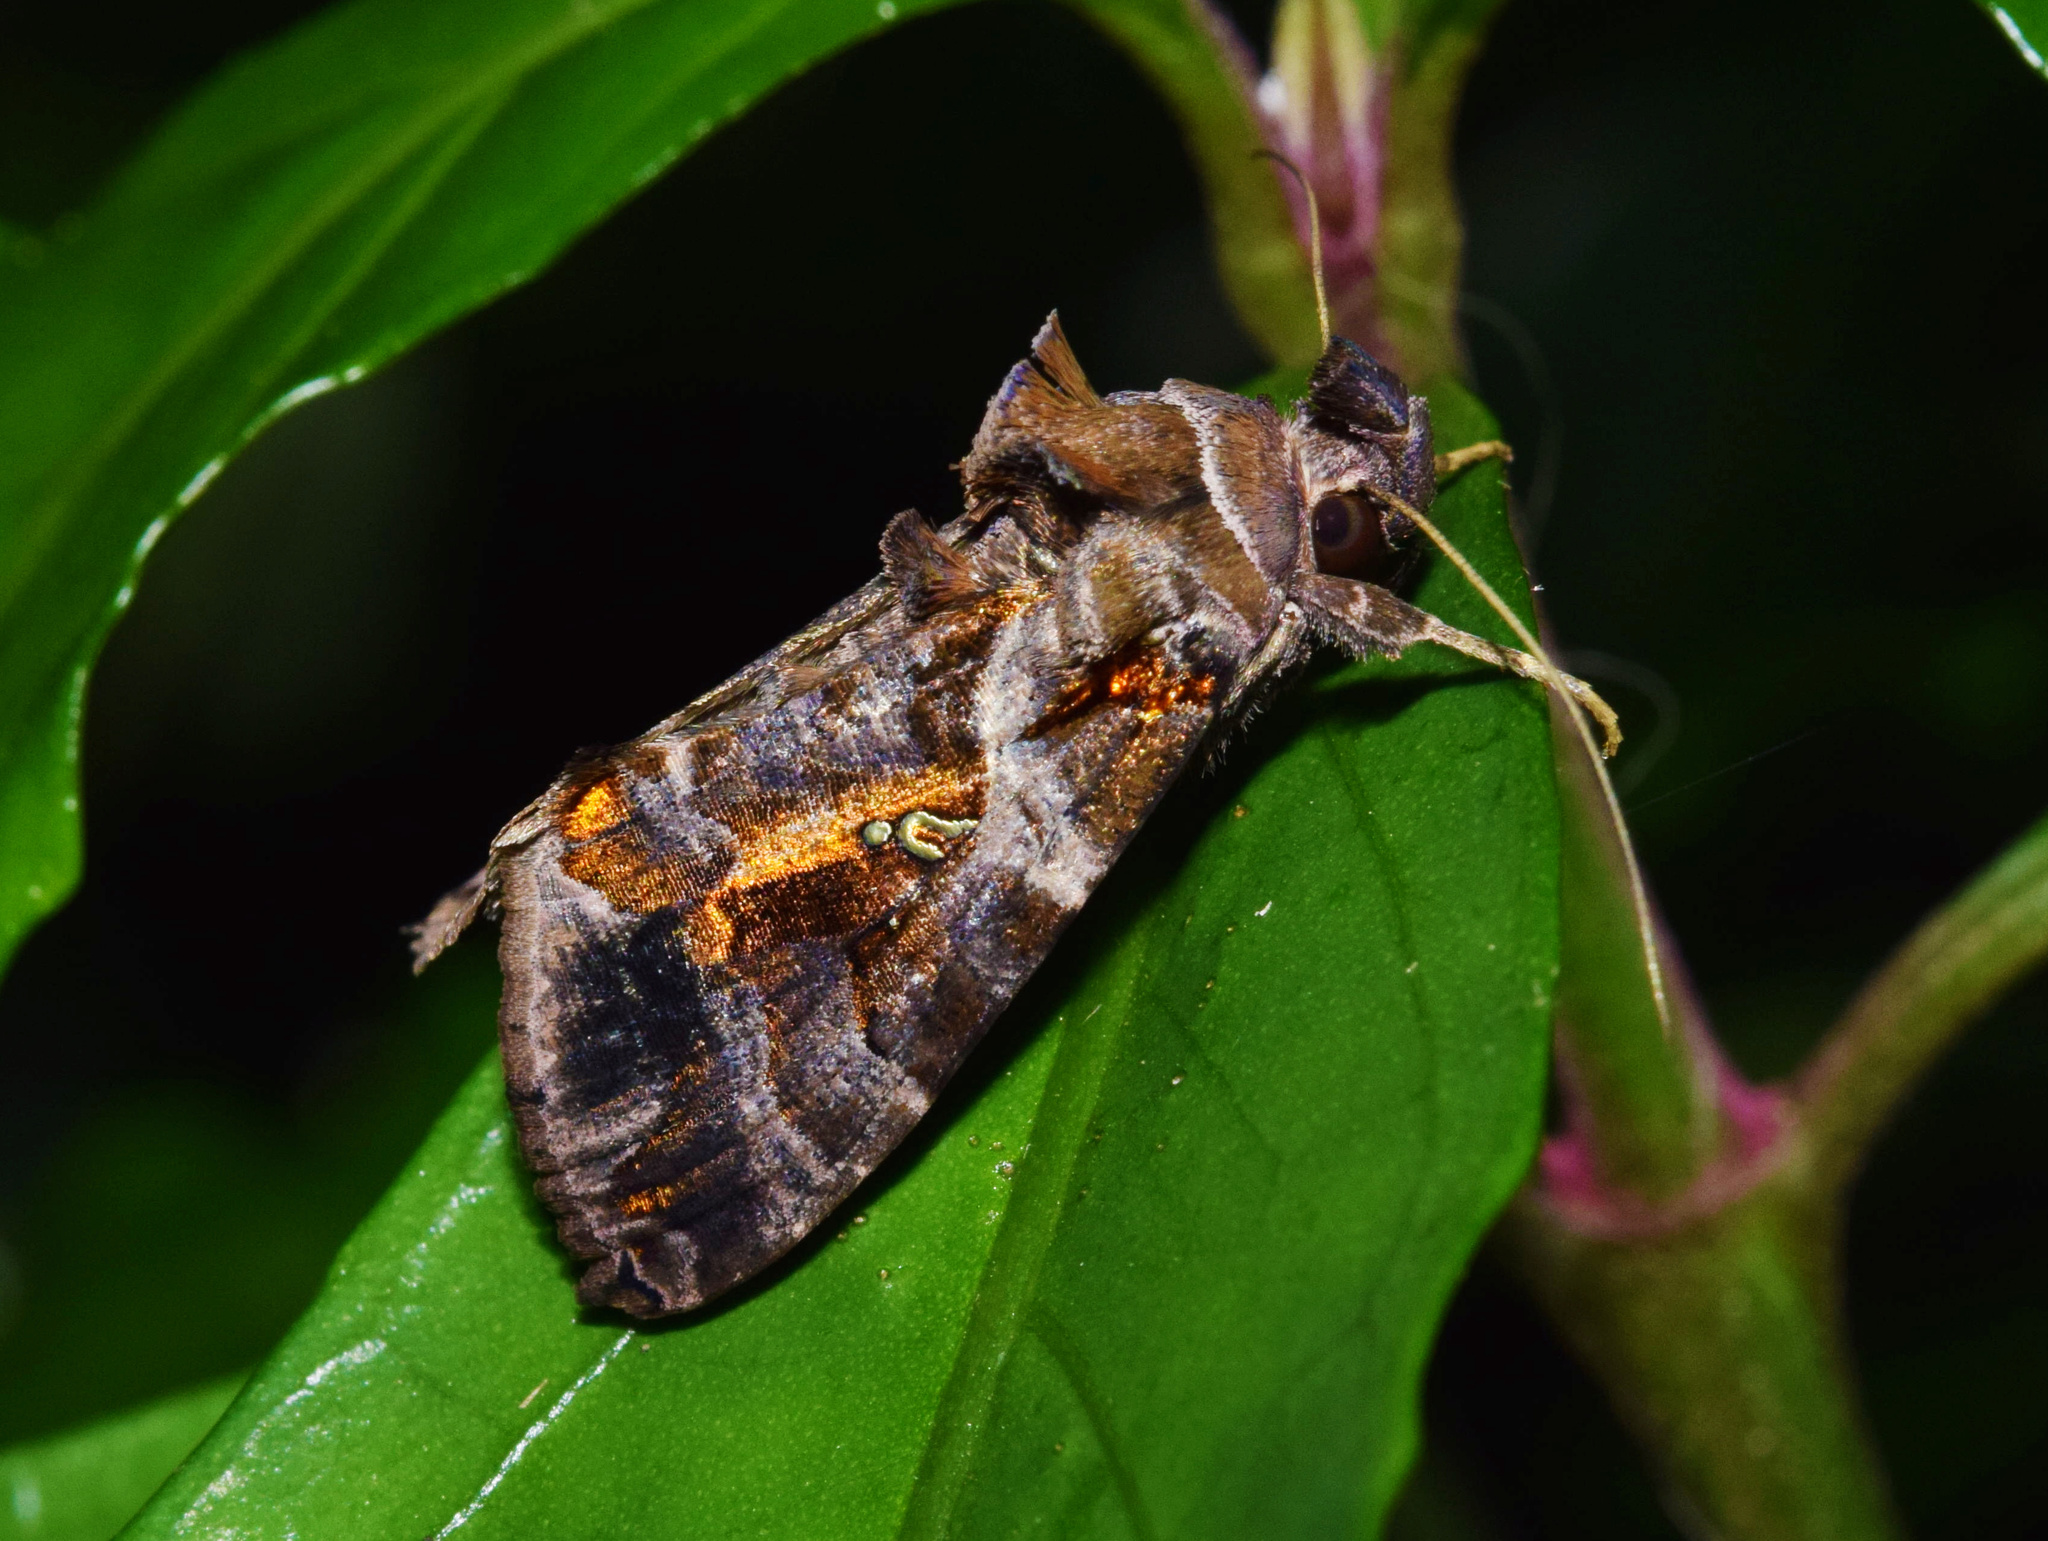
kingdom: Animalia
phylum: Arthropoda
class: Insecta
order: Lepidoptera
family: Noctuidae
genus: Plusiopalpa
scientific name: Plusiopalpa dichora
